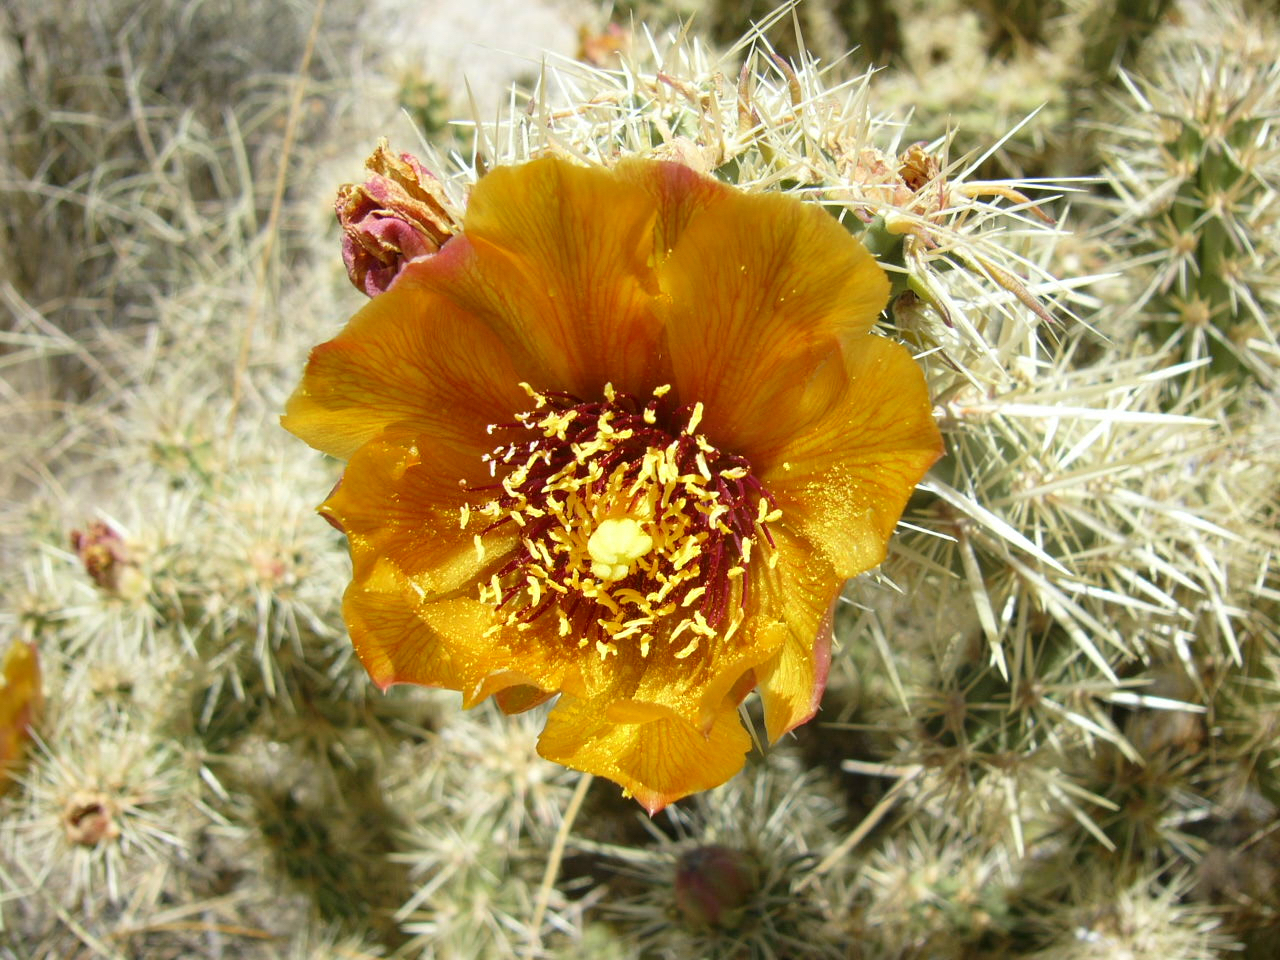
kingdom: Plantae
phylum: Tracheophyta
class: Magnoliopsida
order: Caryophyllales
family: Cactaceae
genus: Cylindropuntia
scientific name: Cylindropuntia acanthocarpa
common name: Buckhorn cholla
